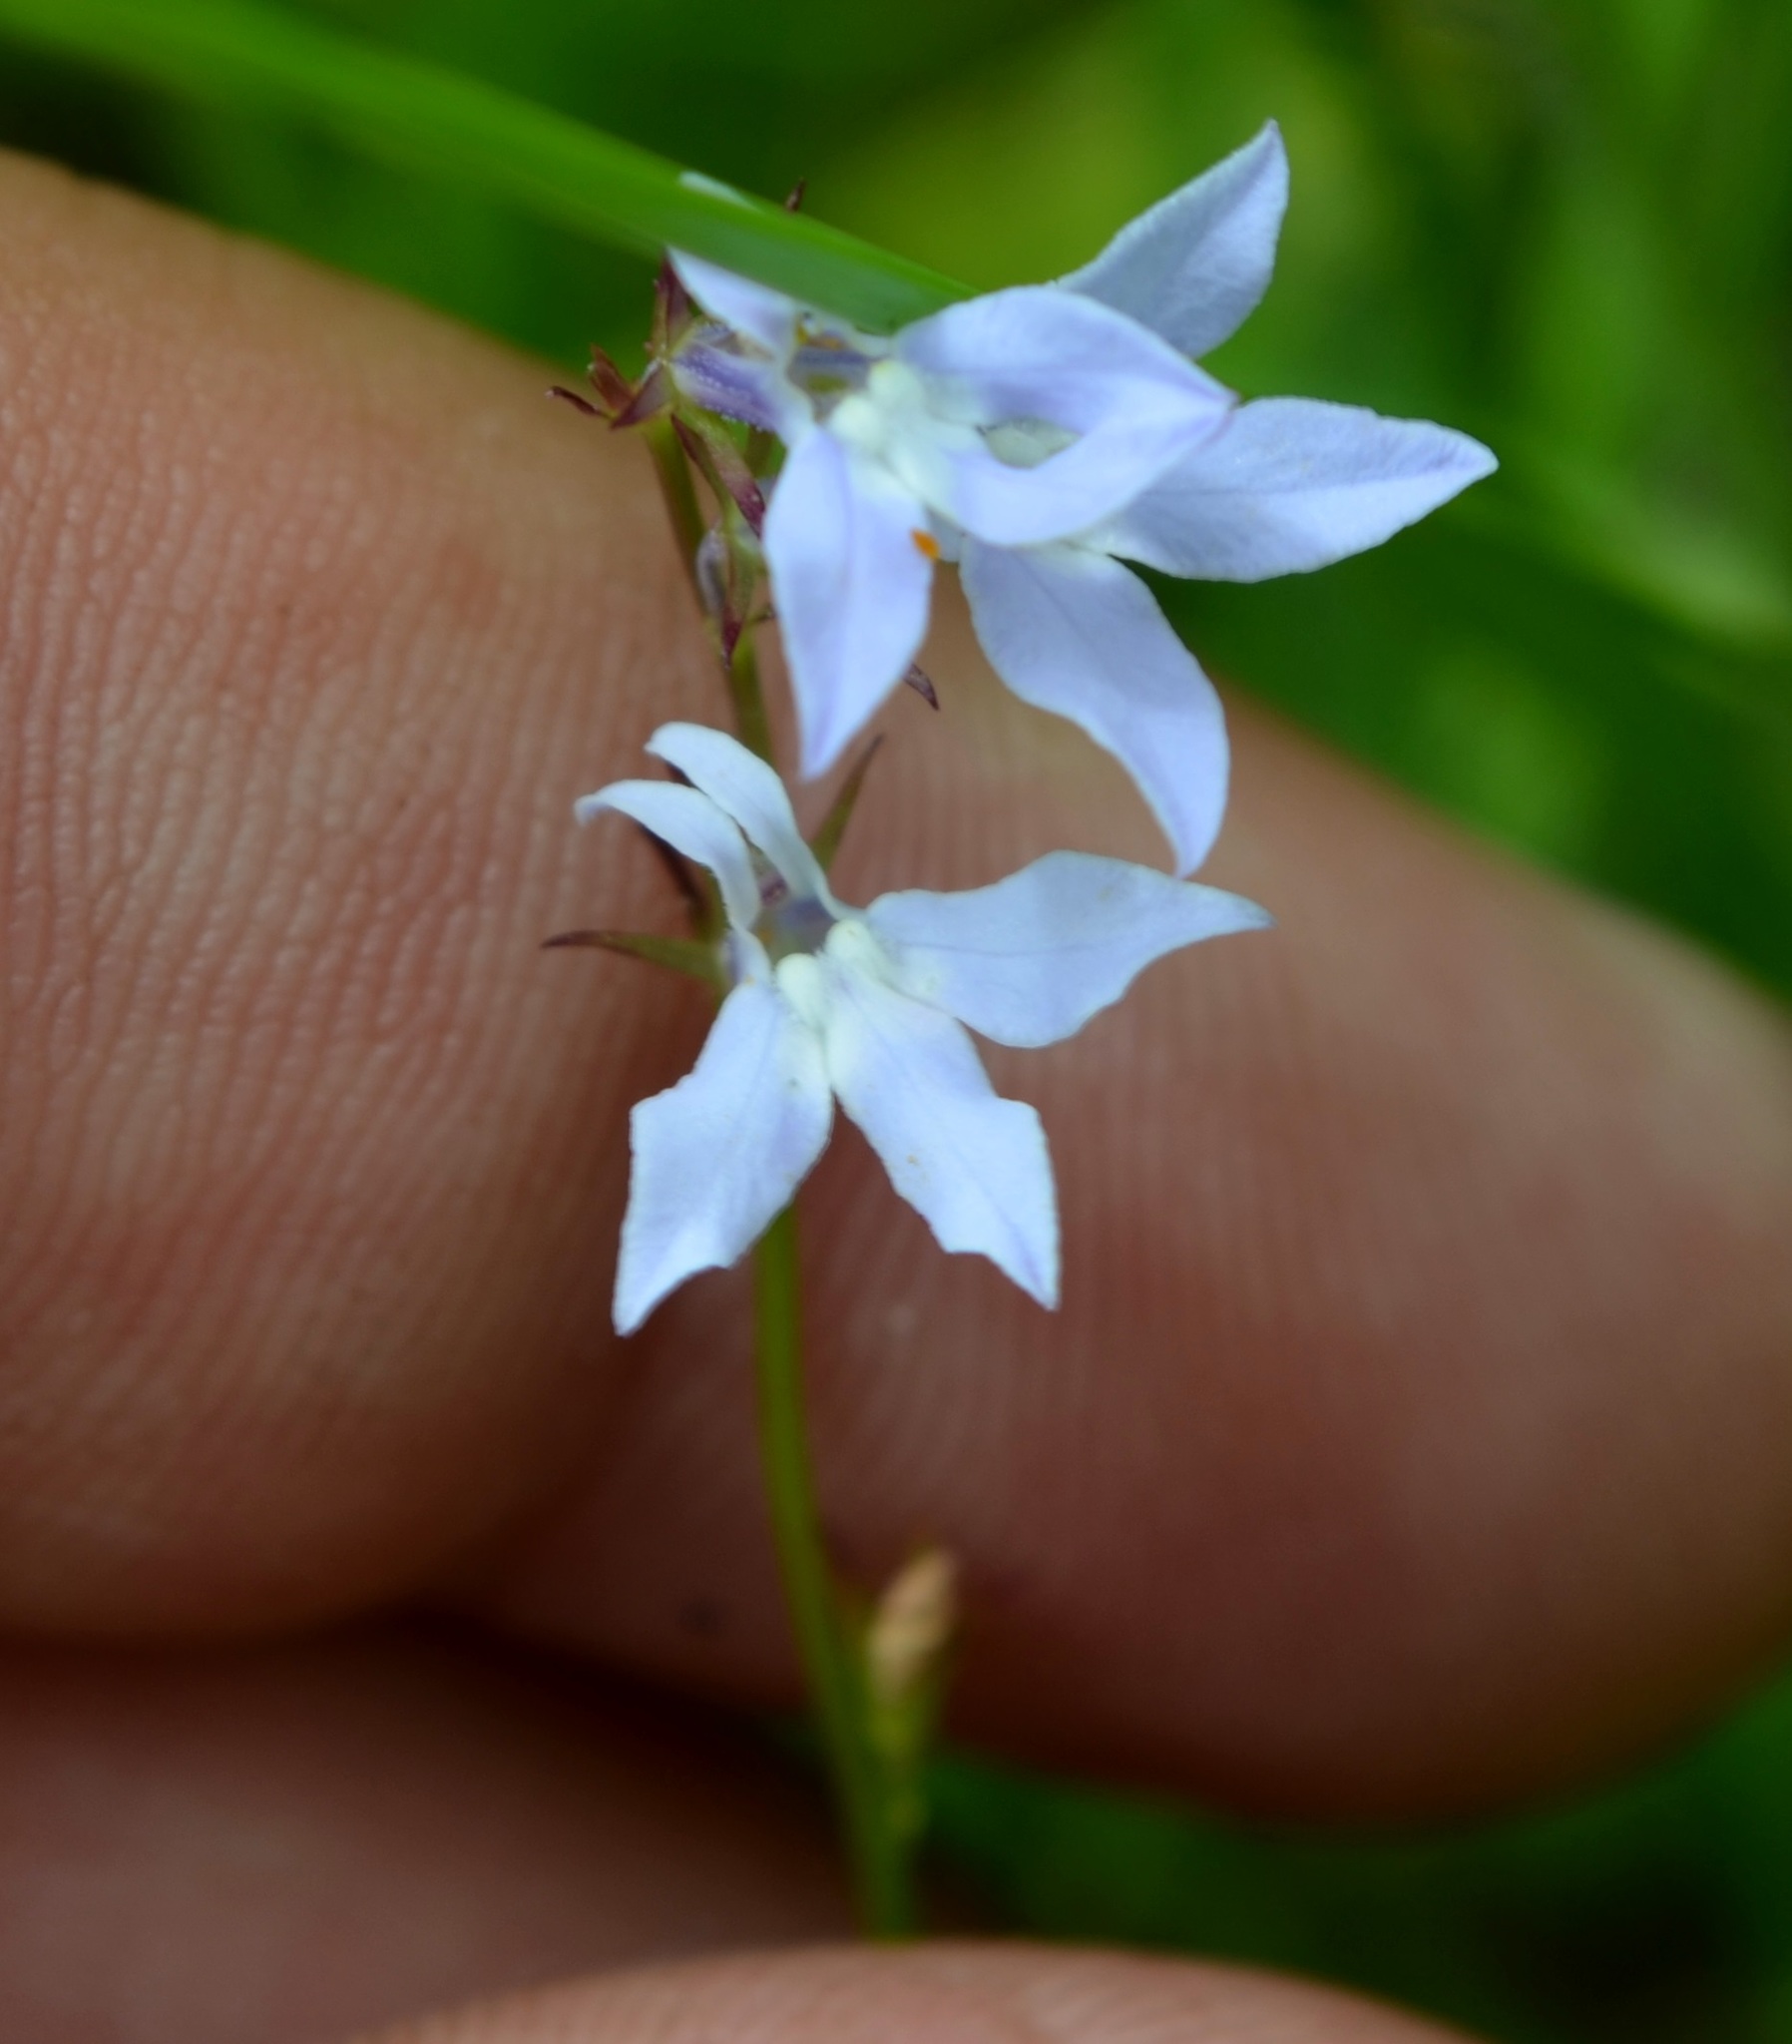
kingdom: Plantae
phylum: Tracheophyta
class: Magnoliopsida
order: Asterales
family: Campanulaceae
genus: Lobelia
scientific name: Lobelia spicata
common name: Pale-spike lobelia
